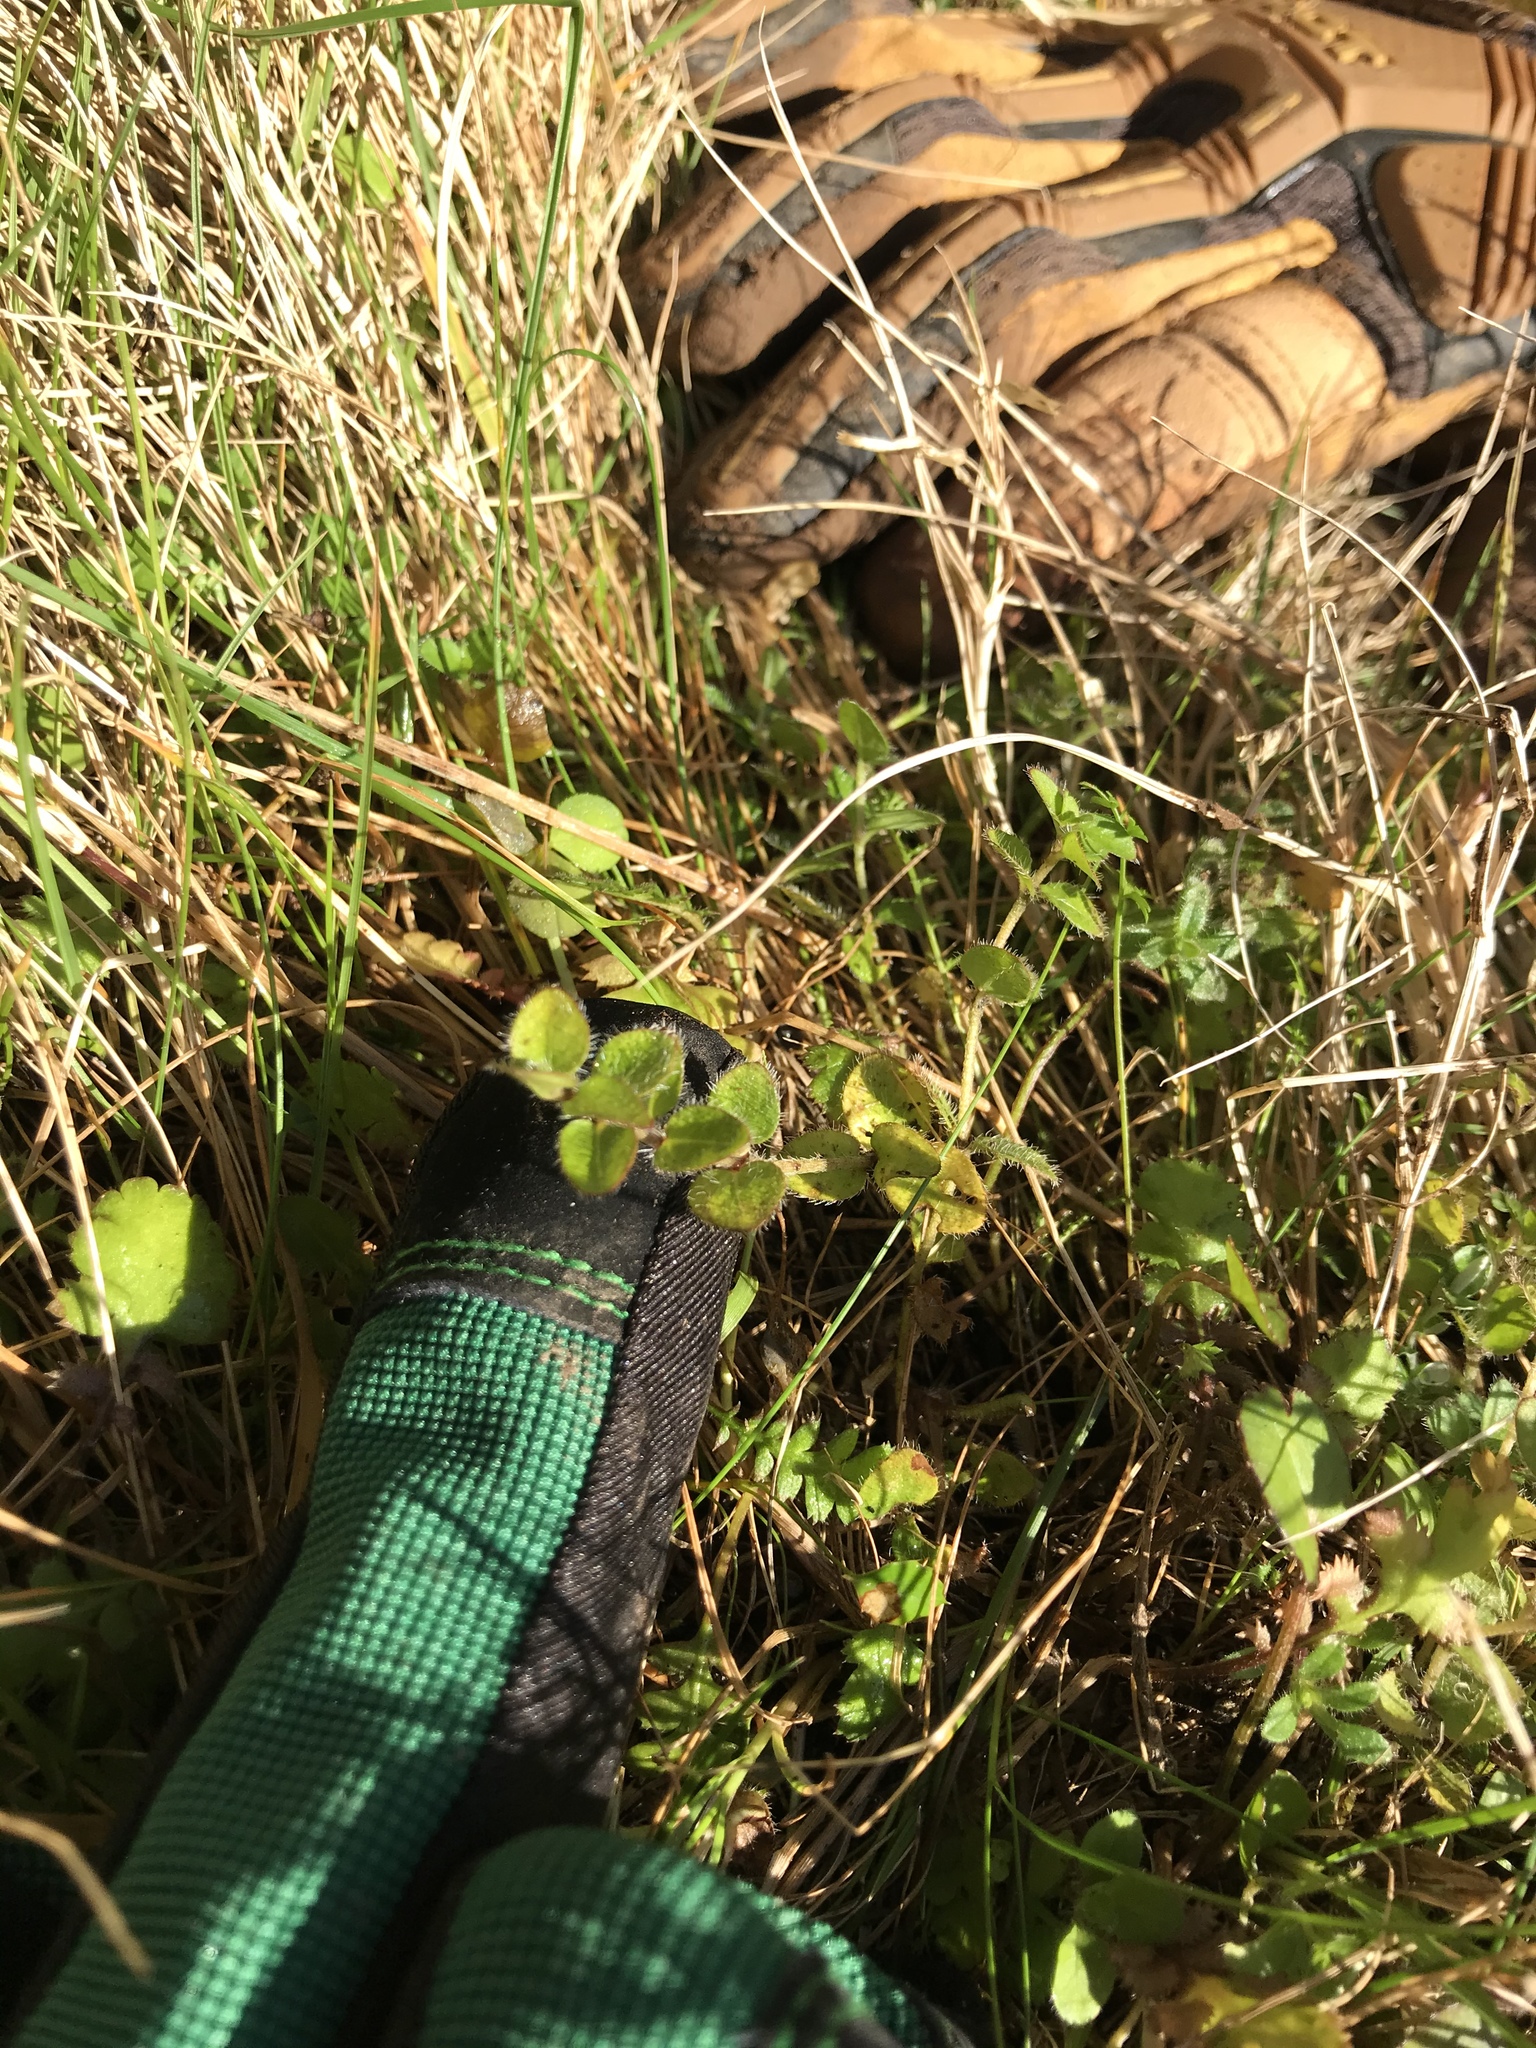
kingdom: Plantae
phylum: Tracheophyta
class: Magnoliopsida
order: Gentianales
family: Rubiaceae
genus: Leptostigma
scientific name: Leptostigma setulosum
